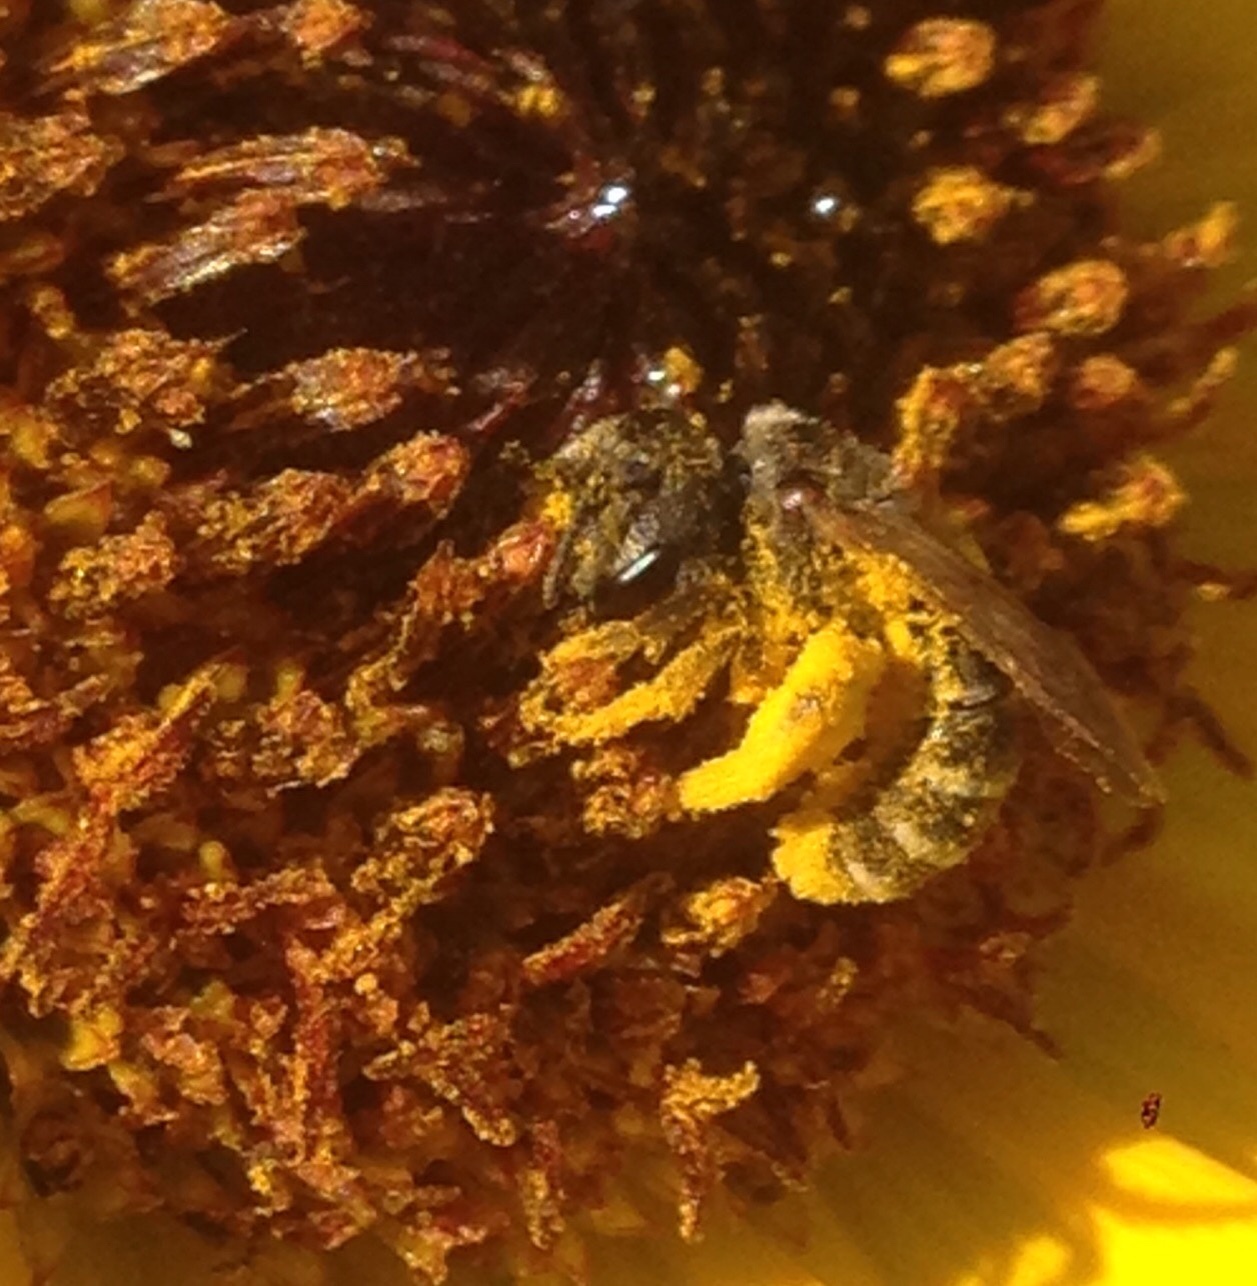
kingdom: Animalia
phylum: Arthropoda
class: Insecta
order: Hymenoptera
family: Halictidae
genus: Halictus
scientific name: Halictus ligatus
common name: Ligated furrow bee
